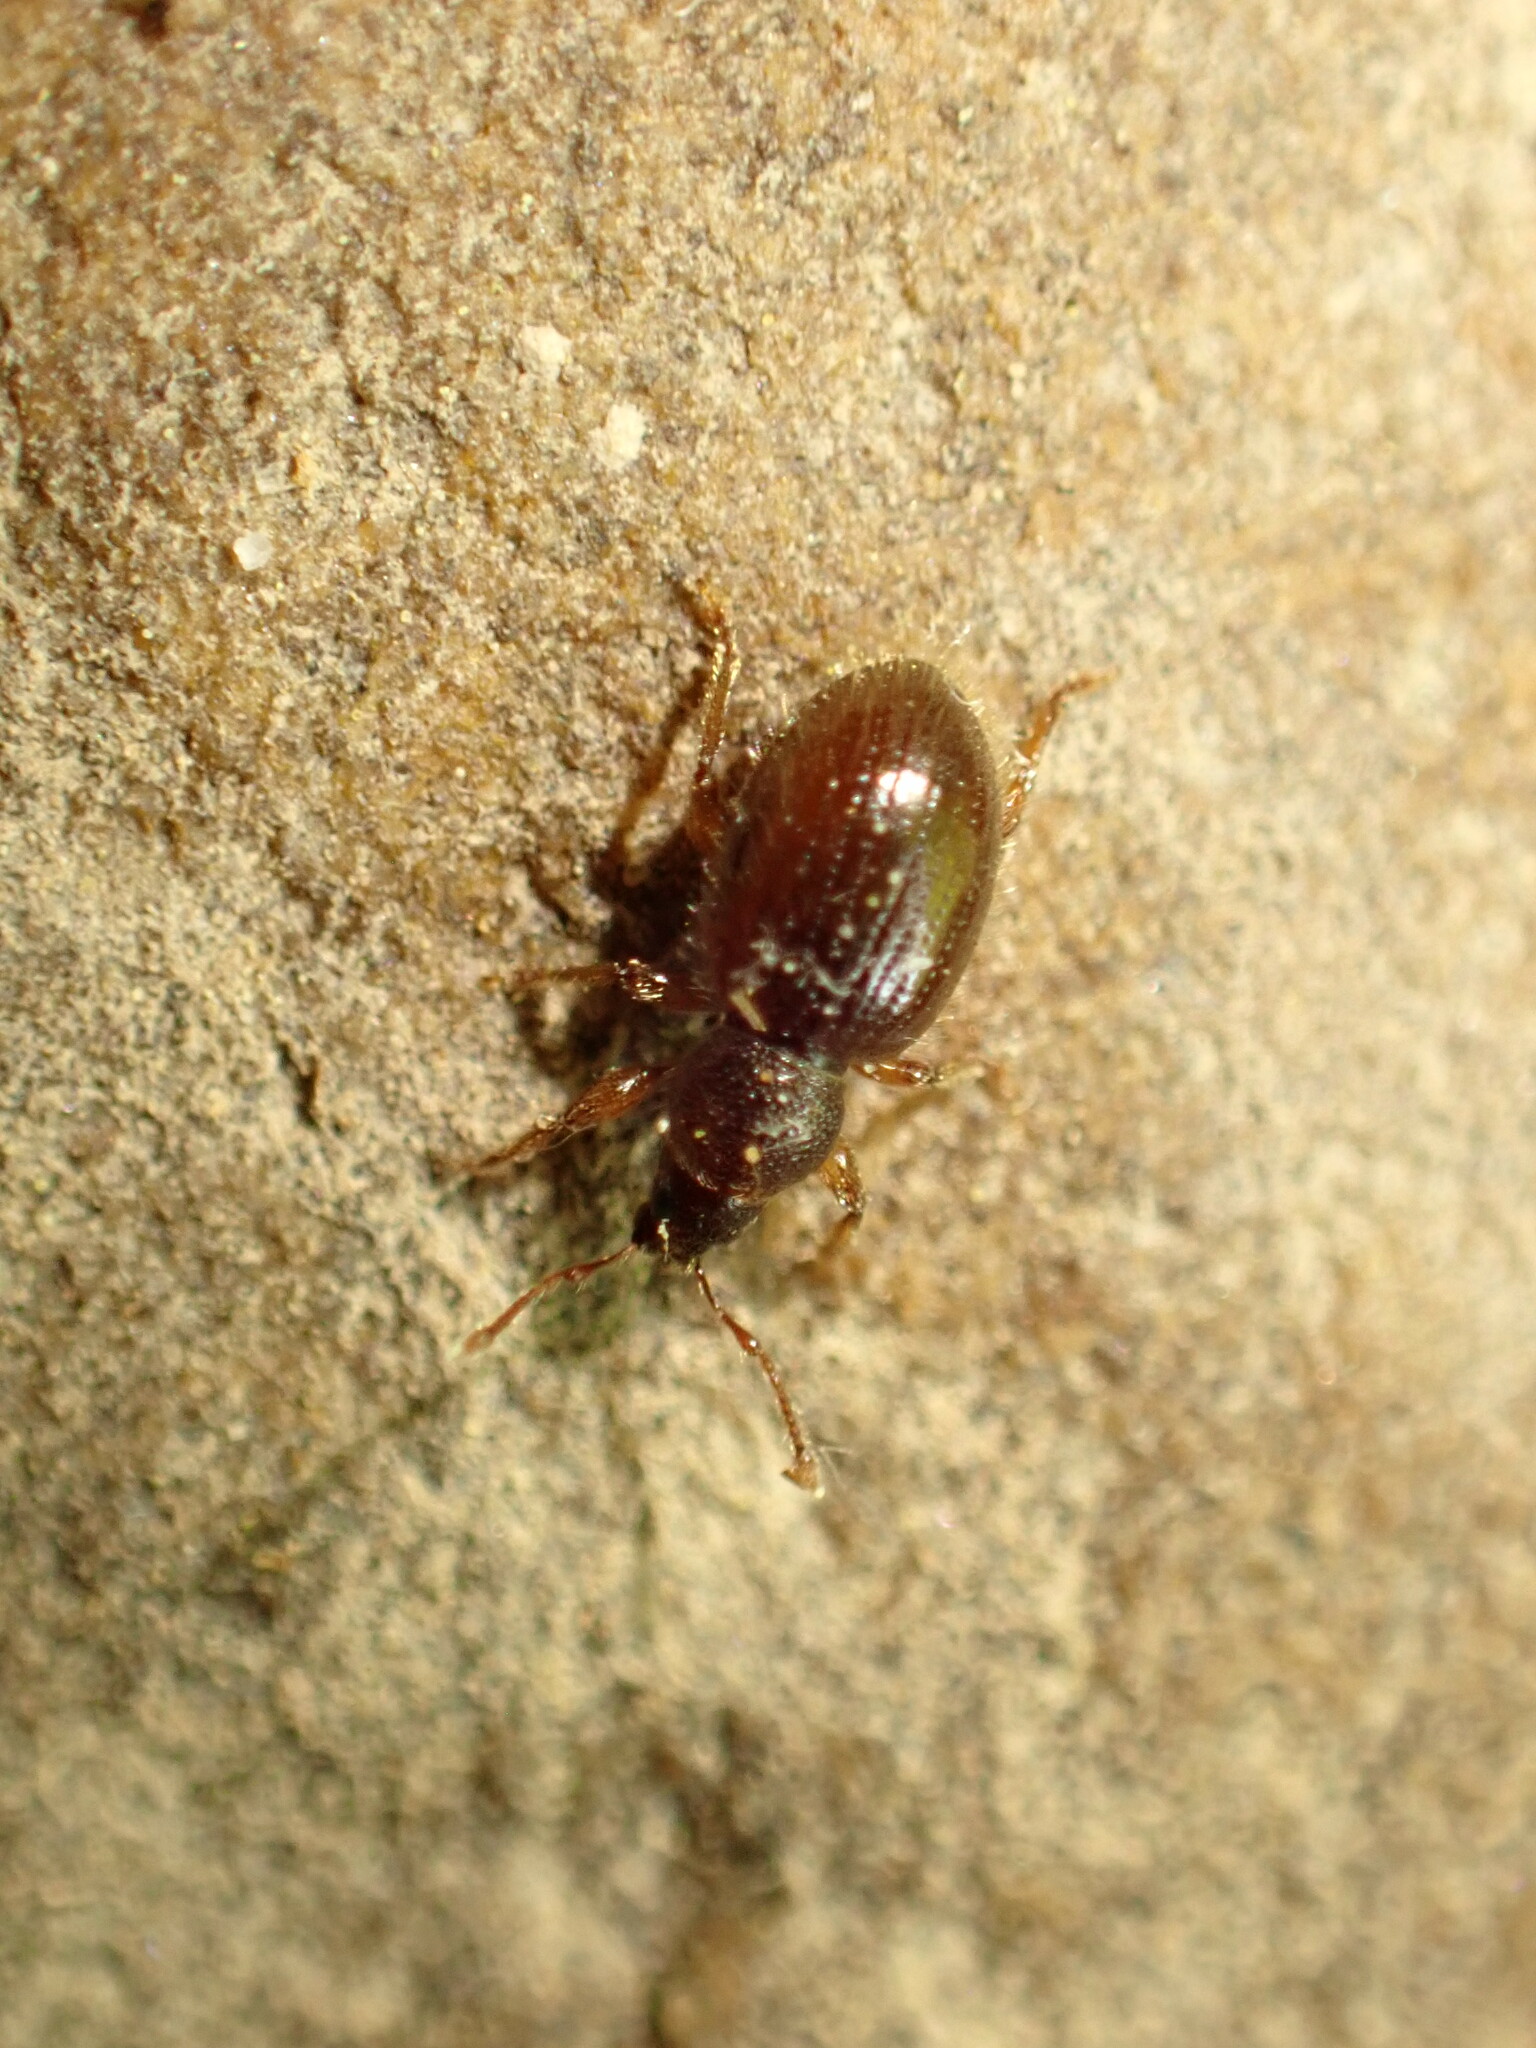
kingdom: Animalia
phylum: Arthropoda
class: Insecta
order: Coleoptera
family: Curculionidae
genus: Exomias
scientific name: Exomias pellucidus
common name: Hairy spider weevil
